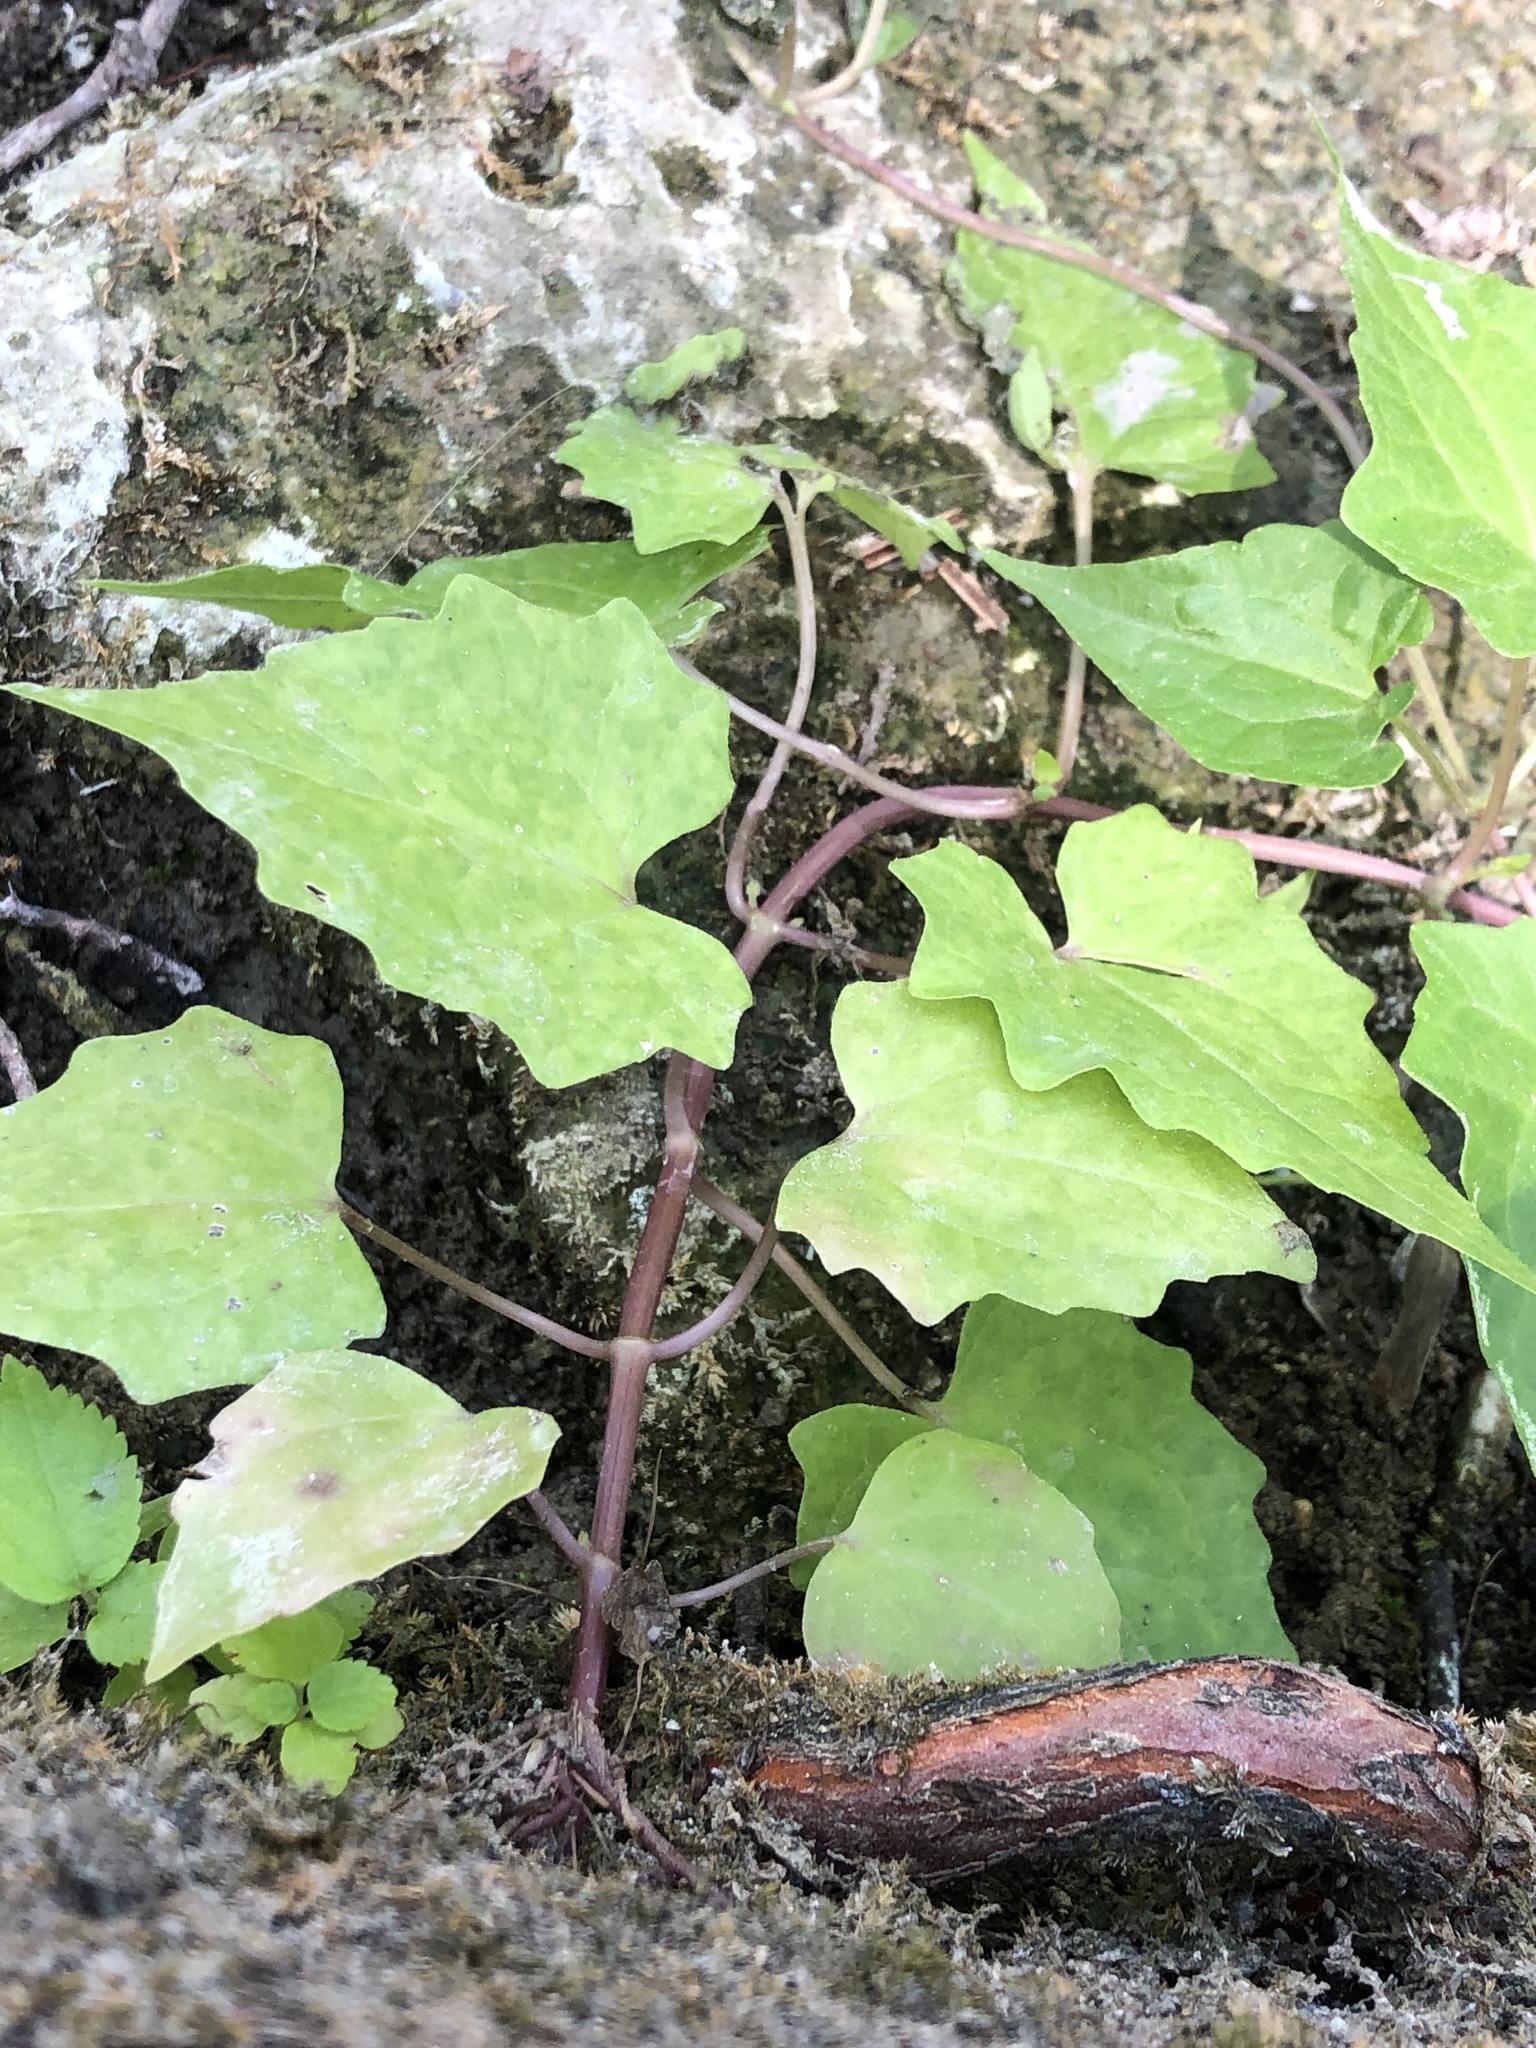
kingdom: Plantae
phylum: Tracheophyta
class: Magnoliopsida
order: Asterales
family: Asteraceae
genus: Mikania
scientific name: Mikania scandens
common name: Climbing hempvine
